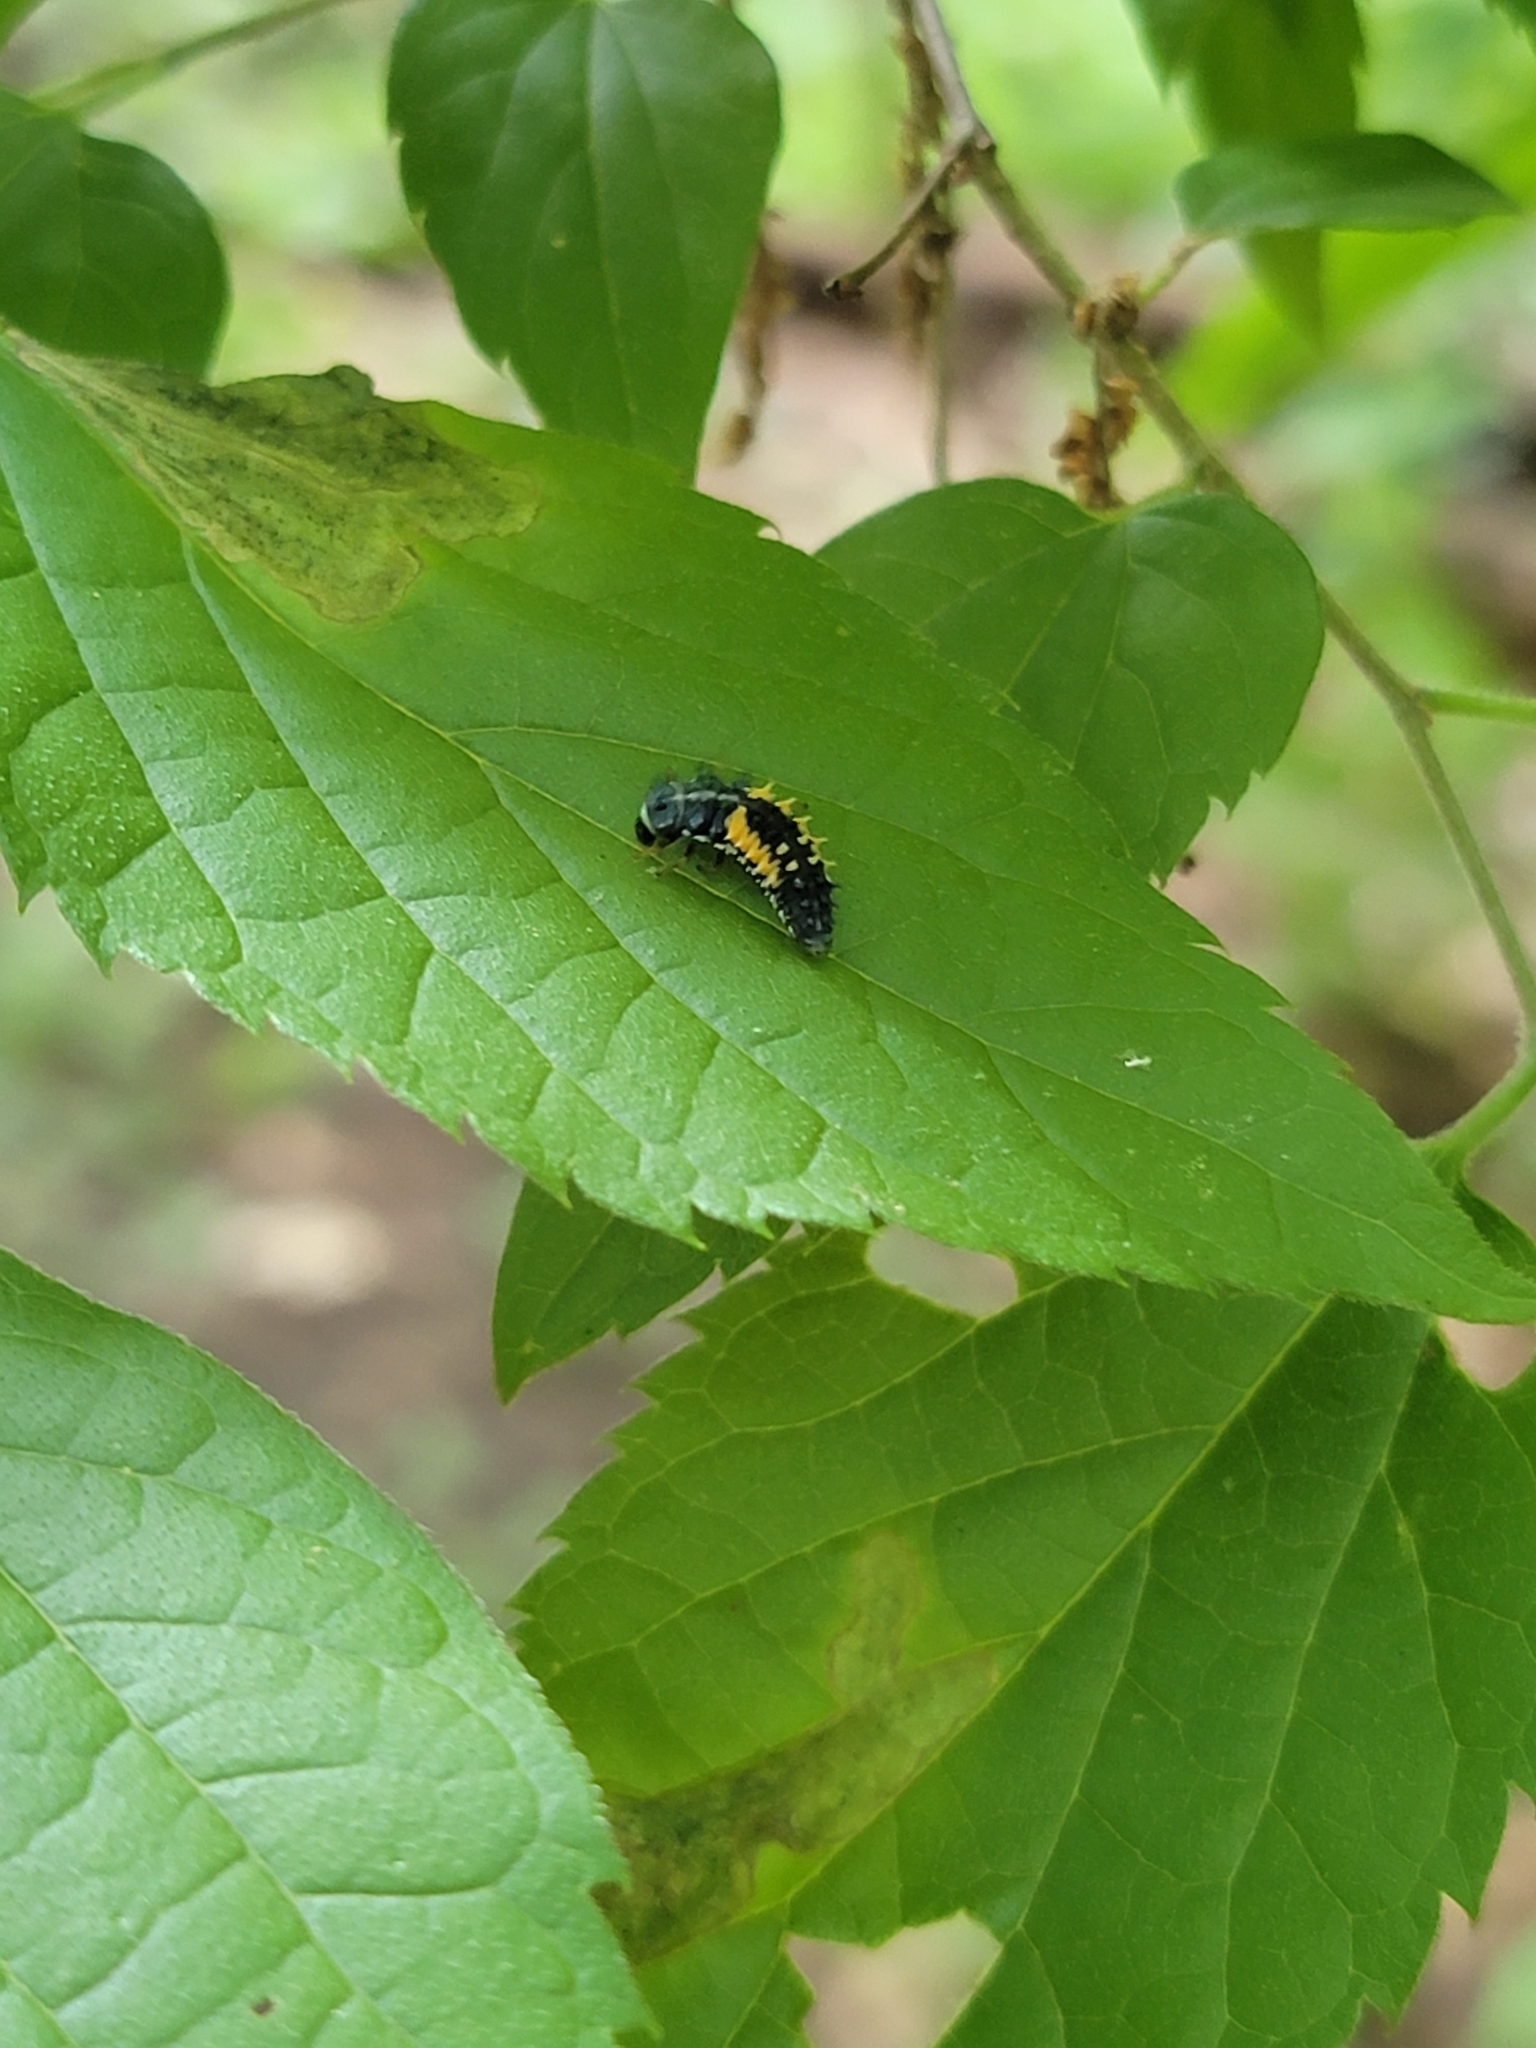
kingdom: Animalia
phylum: Arthropoda
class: Insecta
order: Coleoptera
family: Coccinellidae
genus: Harmonia
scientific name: Harmonia axyridis
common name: Harlequin ladybird
